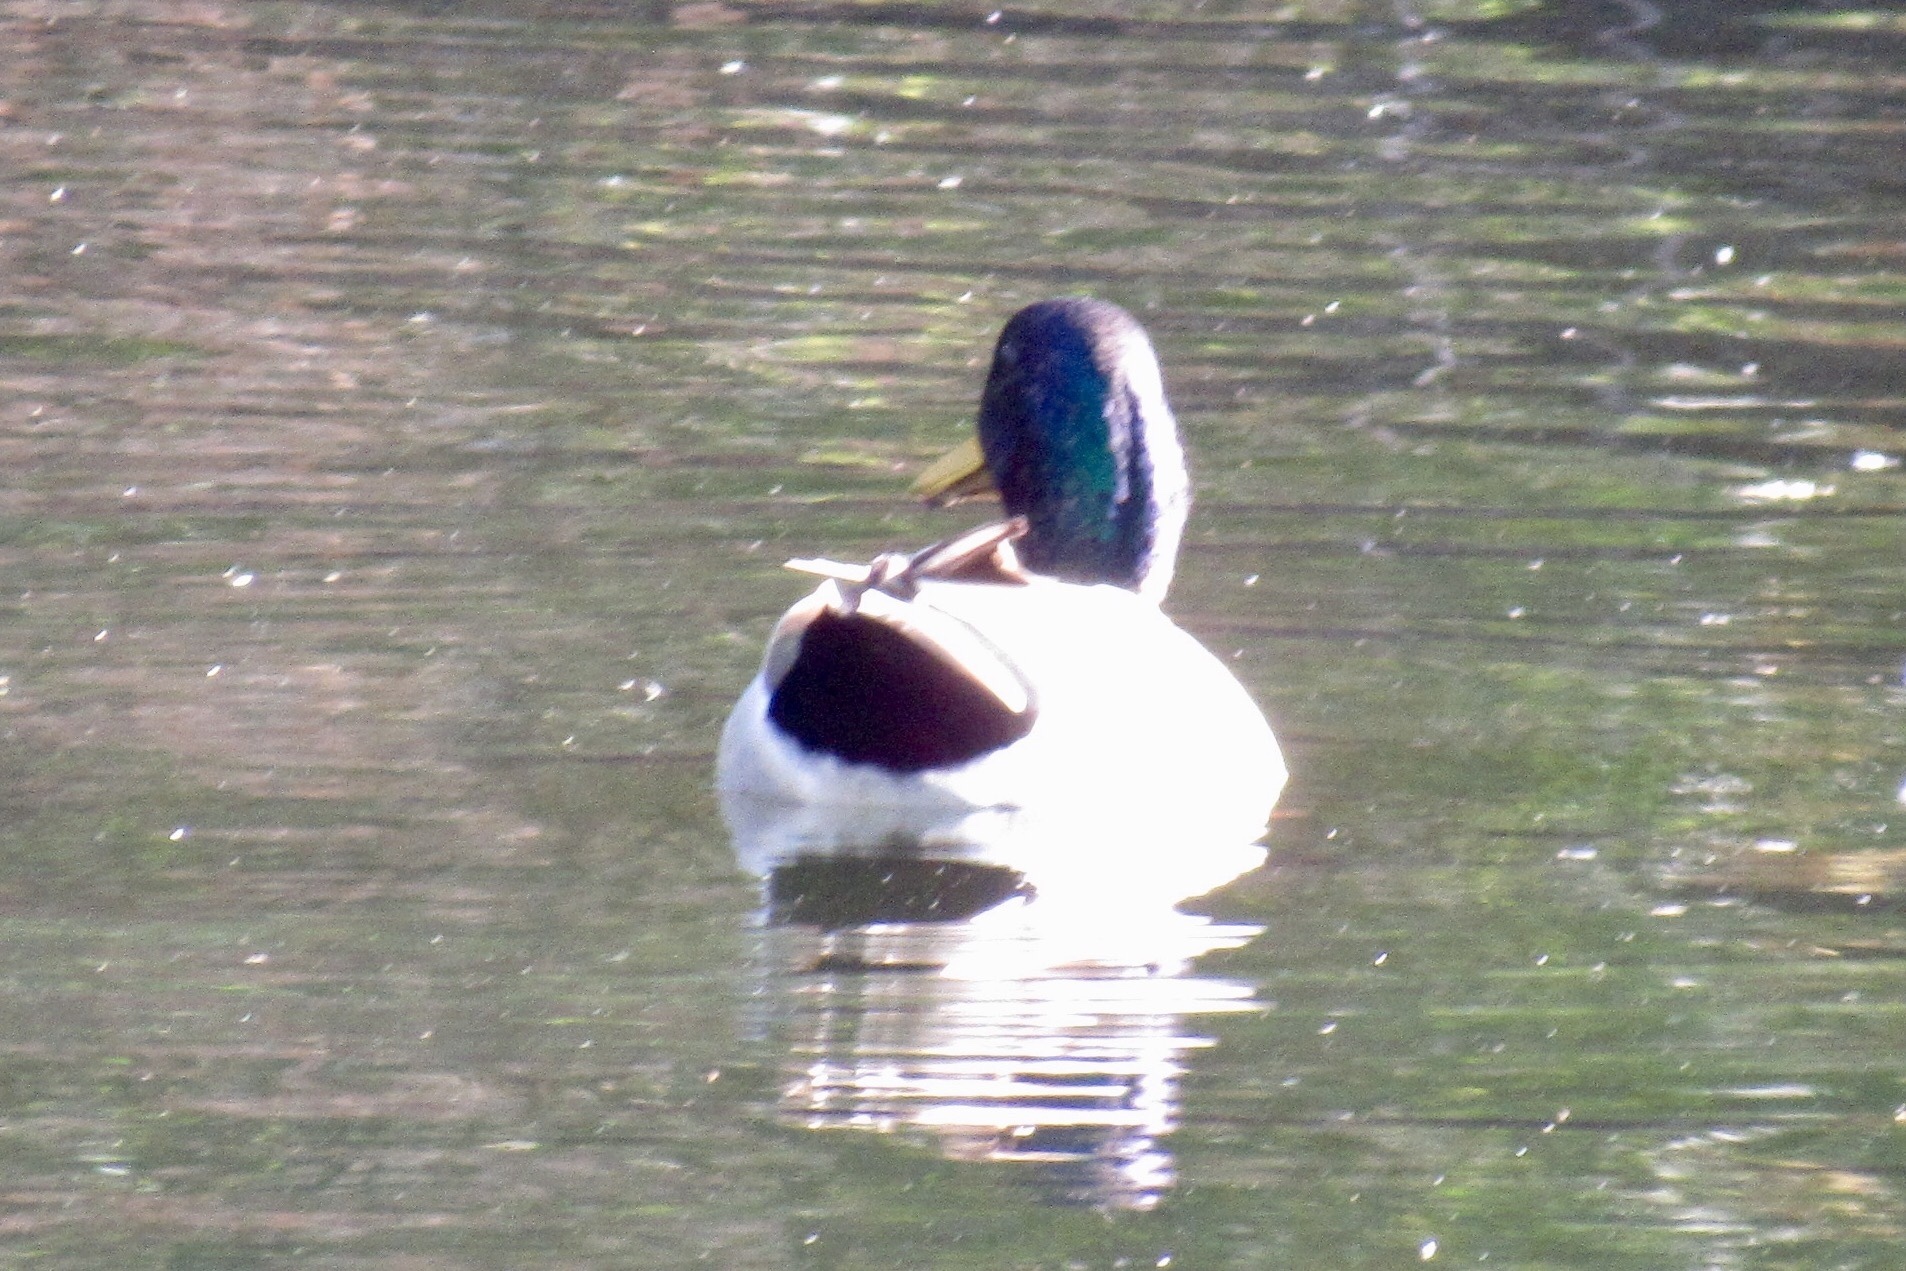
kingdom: Animalia
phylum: Chordata
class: Aves
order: Anseriformes
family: Anatidae
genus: Anas
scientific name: Anas platyrhynchos
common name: Mallard
